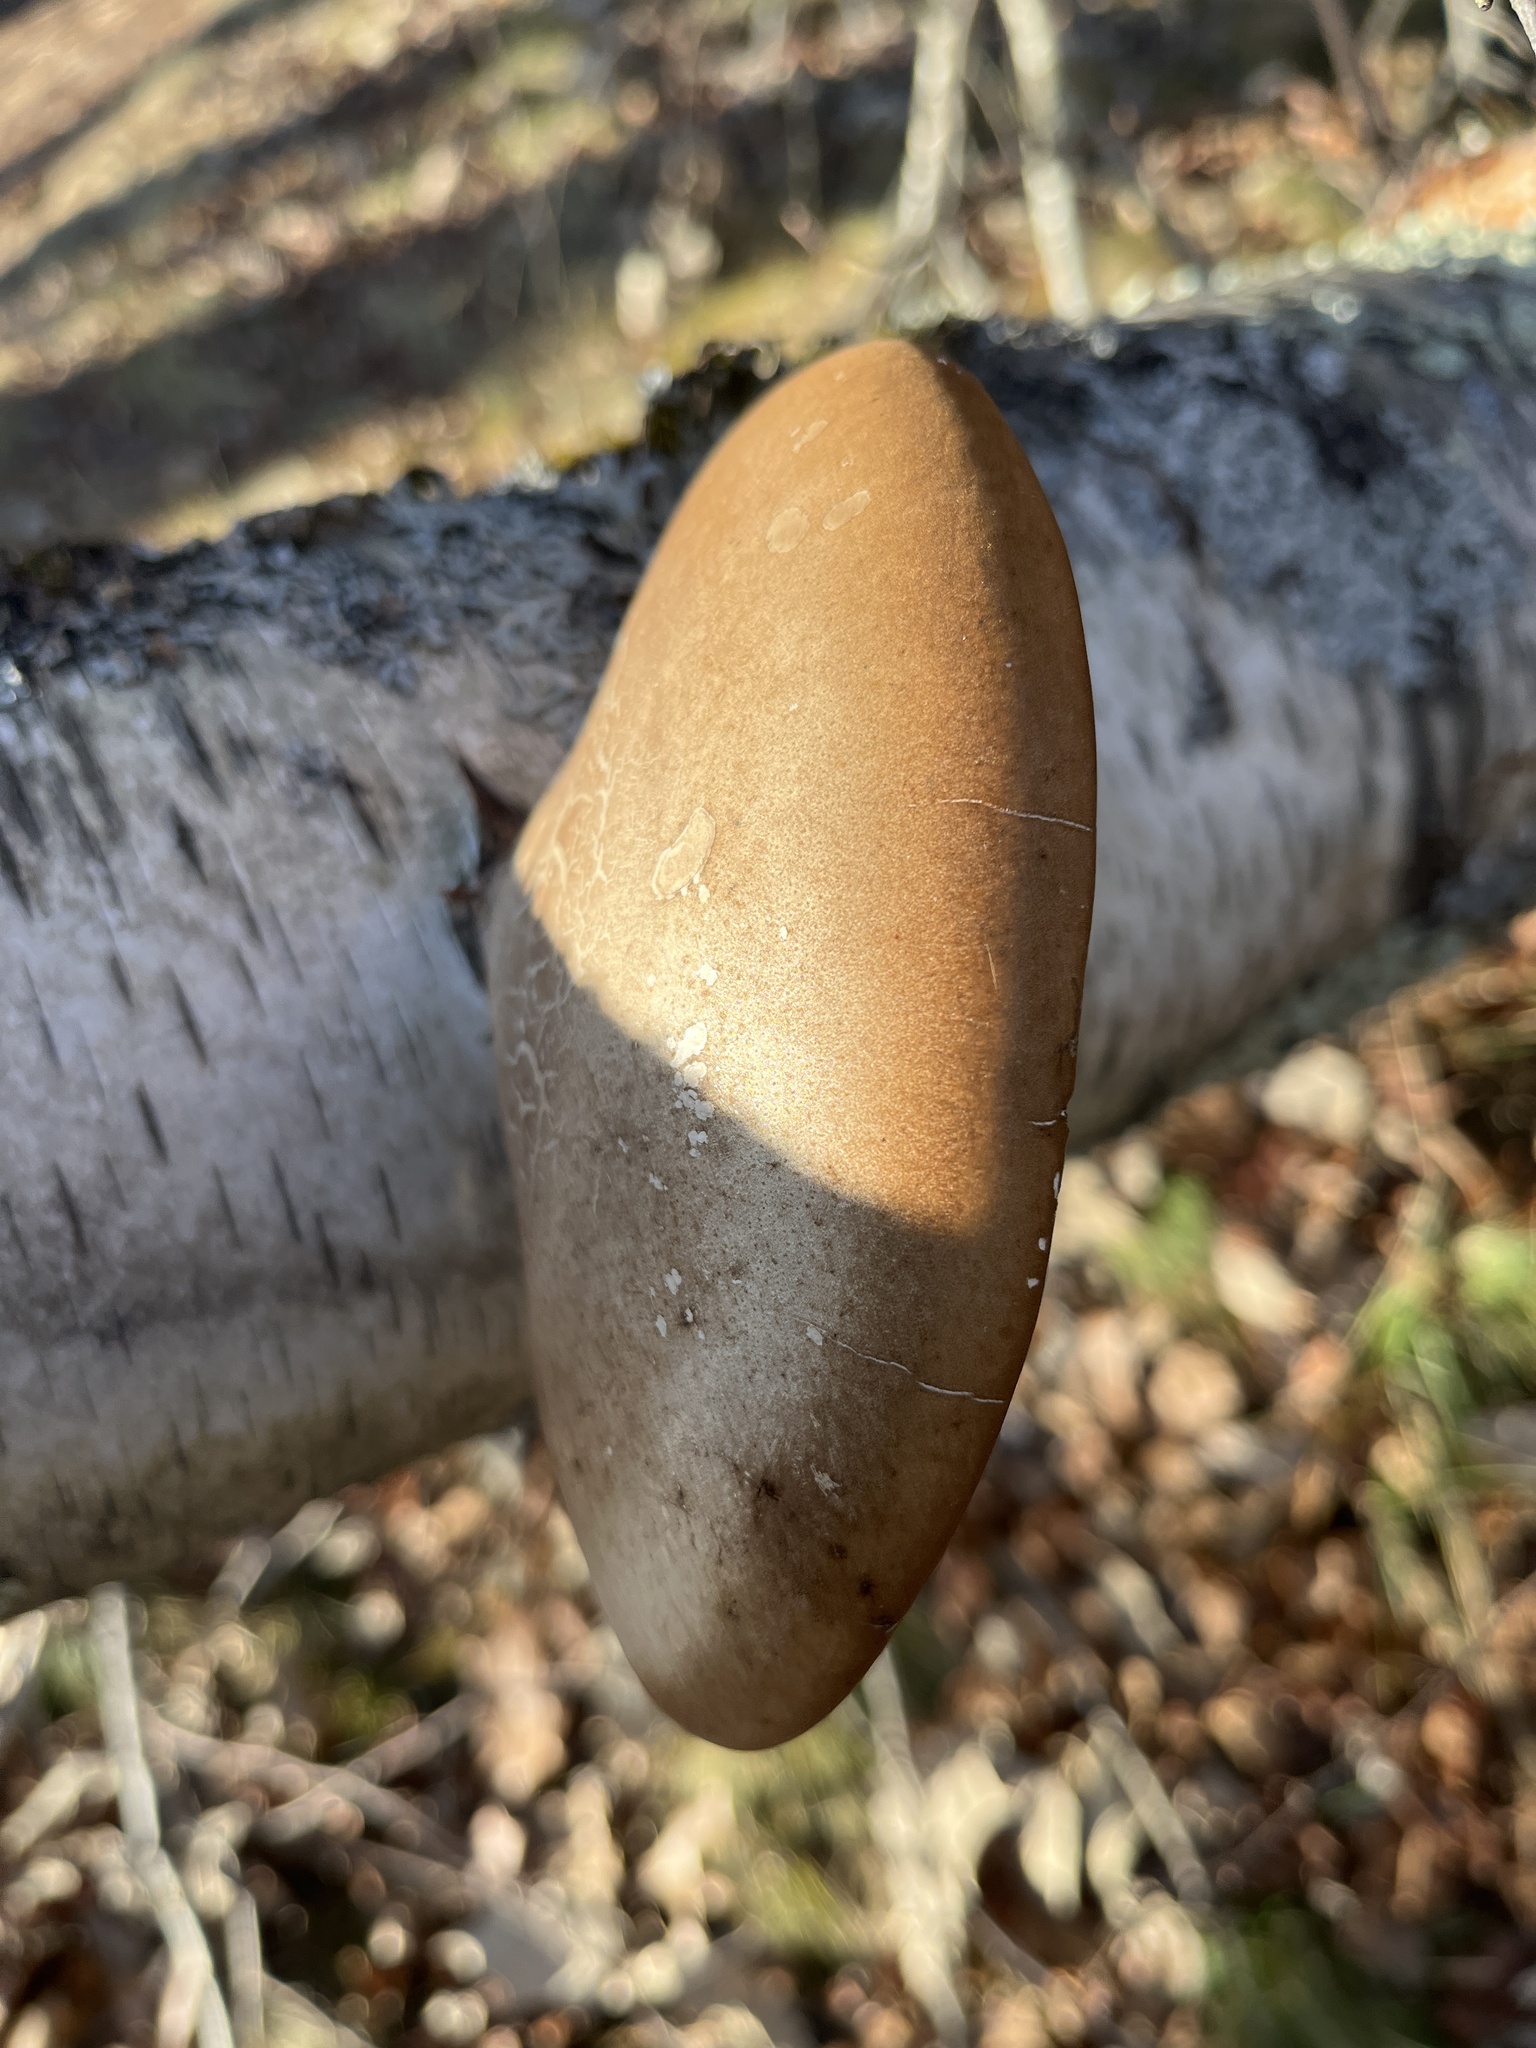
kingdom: Fungi
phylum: Basidiomycota
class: Agaricomycetes
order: Polyporales
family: Fomitopsidaceae
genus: Fomitopsis
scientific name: Fomitopsis betulina
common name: Birch polypore
